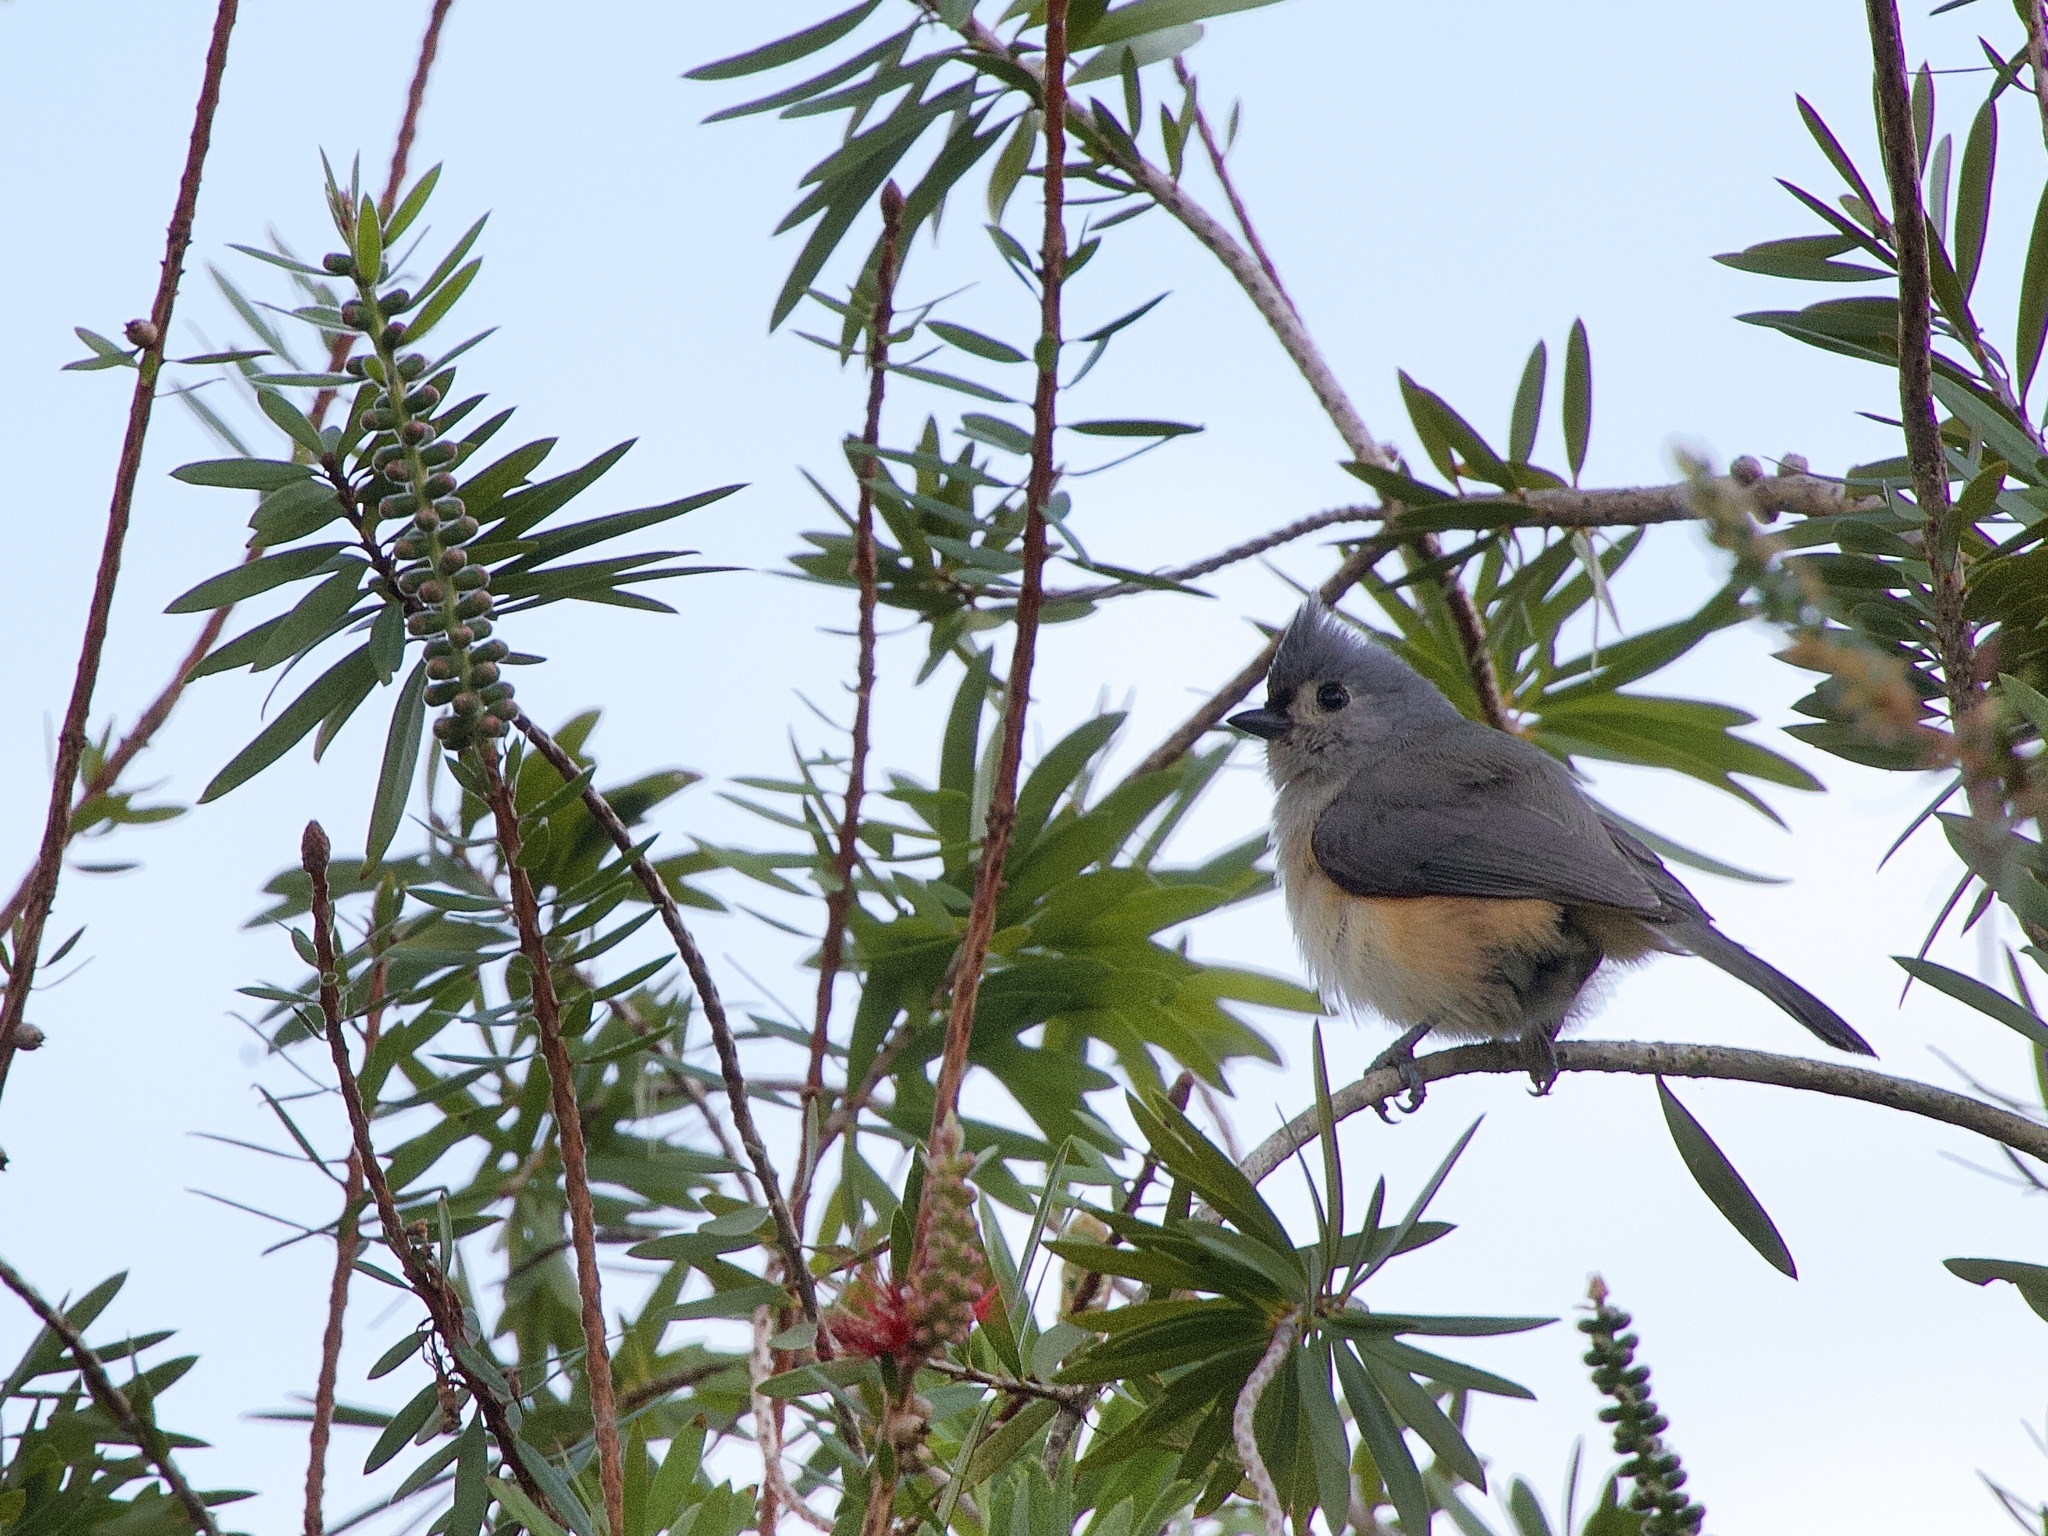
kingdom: Animalia
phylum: Chordata
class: Aves
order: Passeriformes
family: Paridae
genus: Baeolophus
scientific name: Baeolophus bicolor
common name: Tufted titmouse
